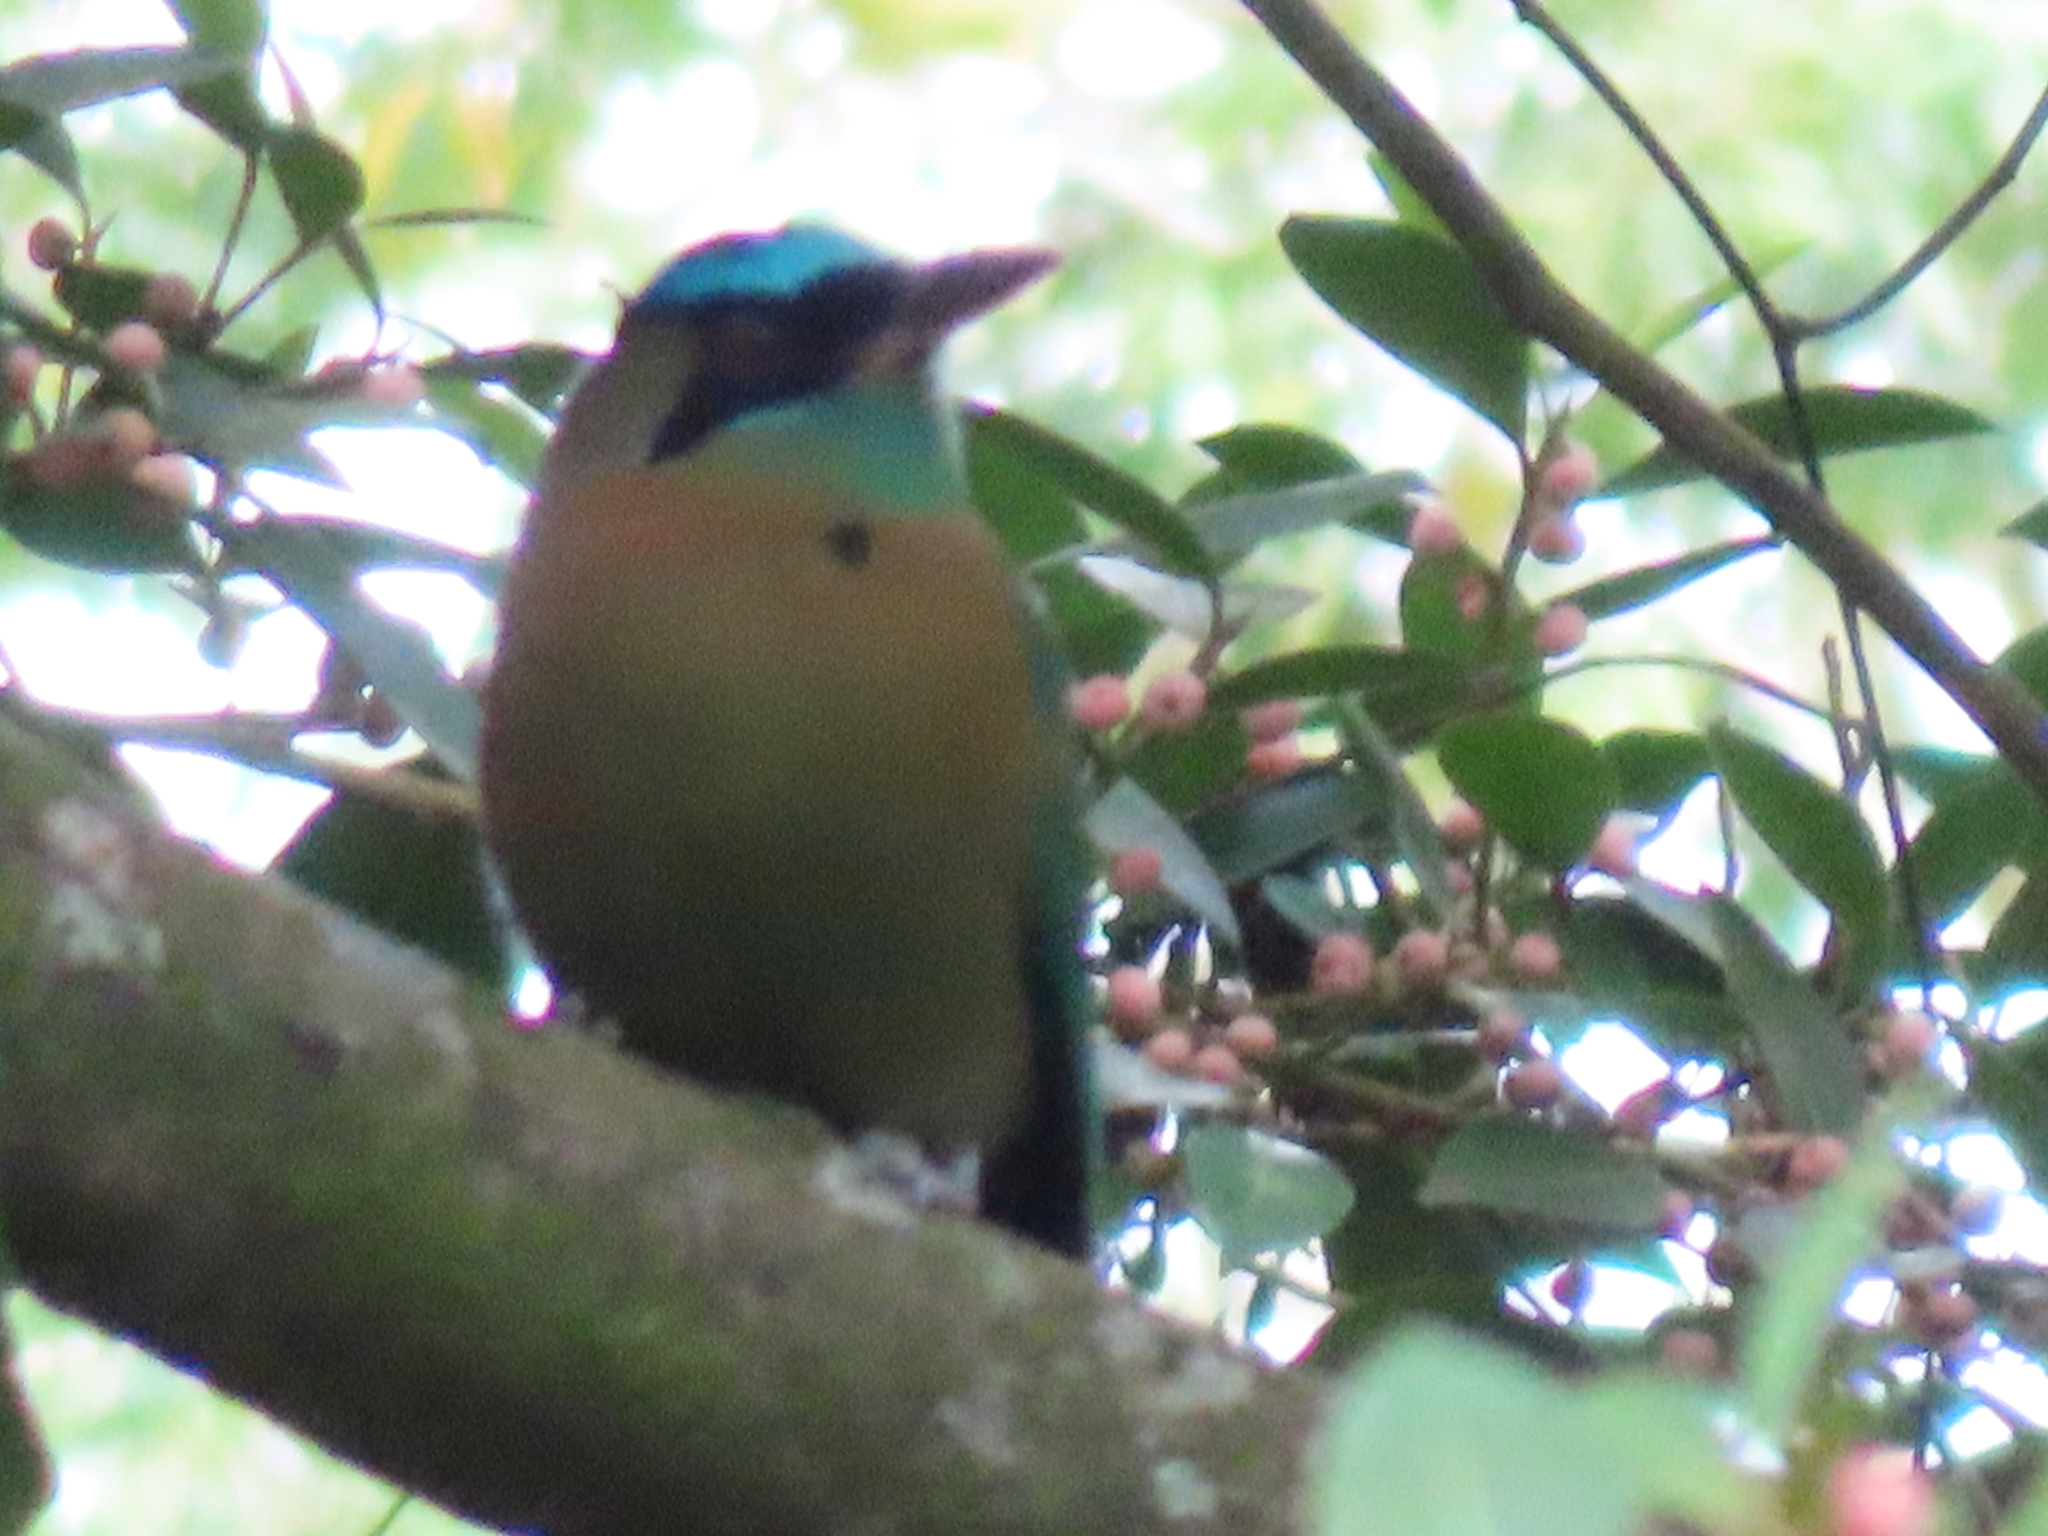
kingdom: Animalia
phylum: Chordata
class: Aves
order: Coraciiformes
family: Momotidae
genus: Momotus
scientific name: Momotus lessonii
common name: Lesson's motmot
